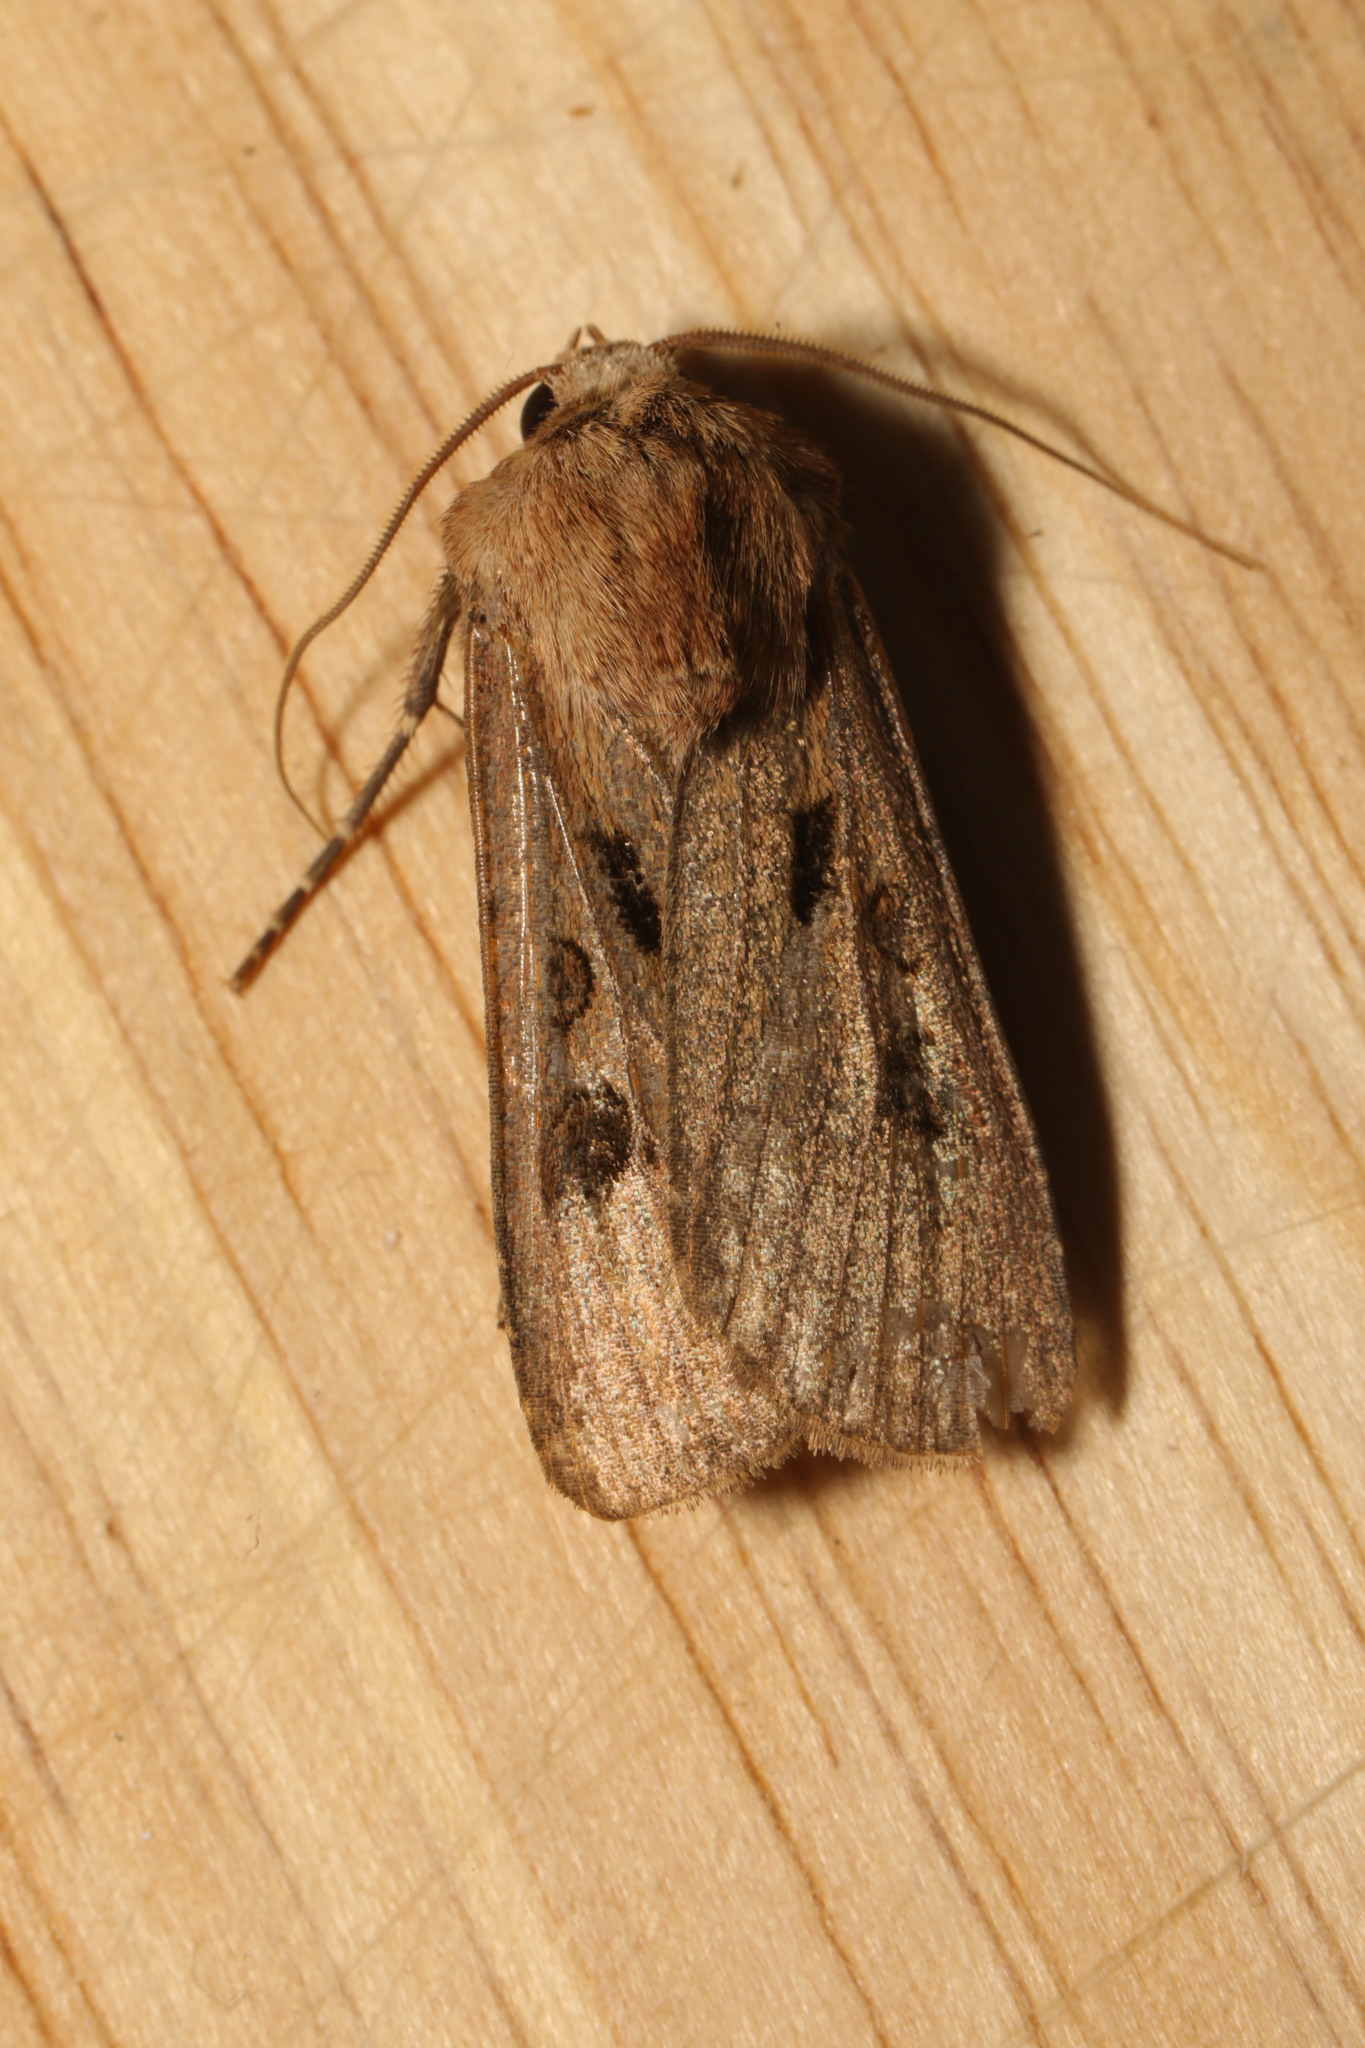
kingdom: Animalia
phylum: Arthropoda
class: Insecta
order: Lepidoptera
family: Noctuidae
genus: Agrotis
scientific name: Agrotis exclamationis
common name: Heart and dart
